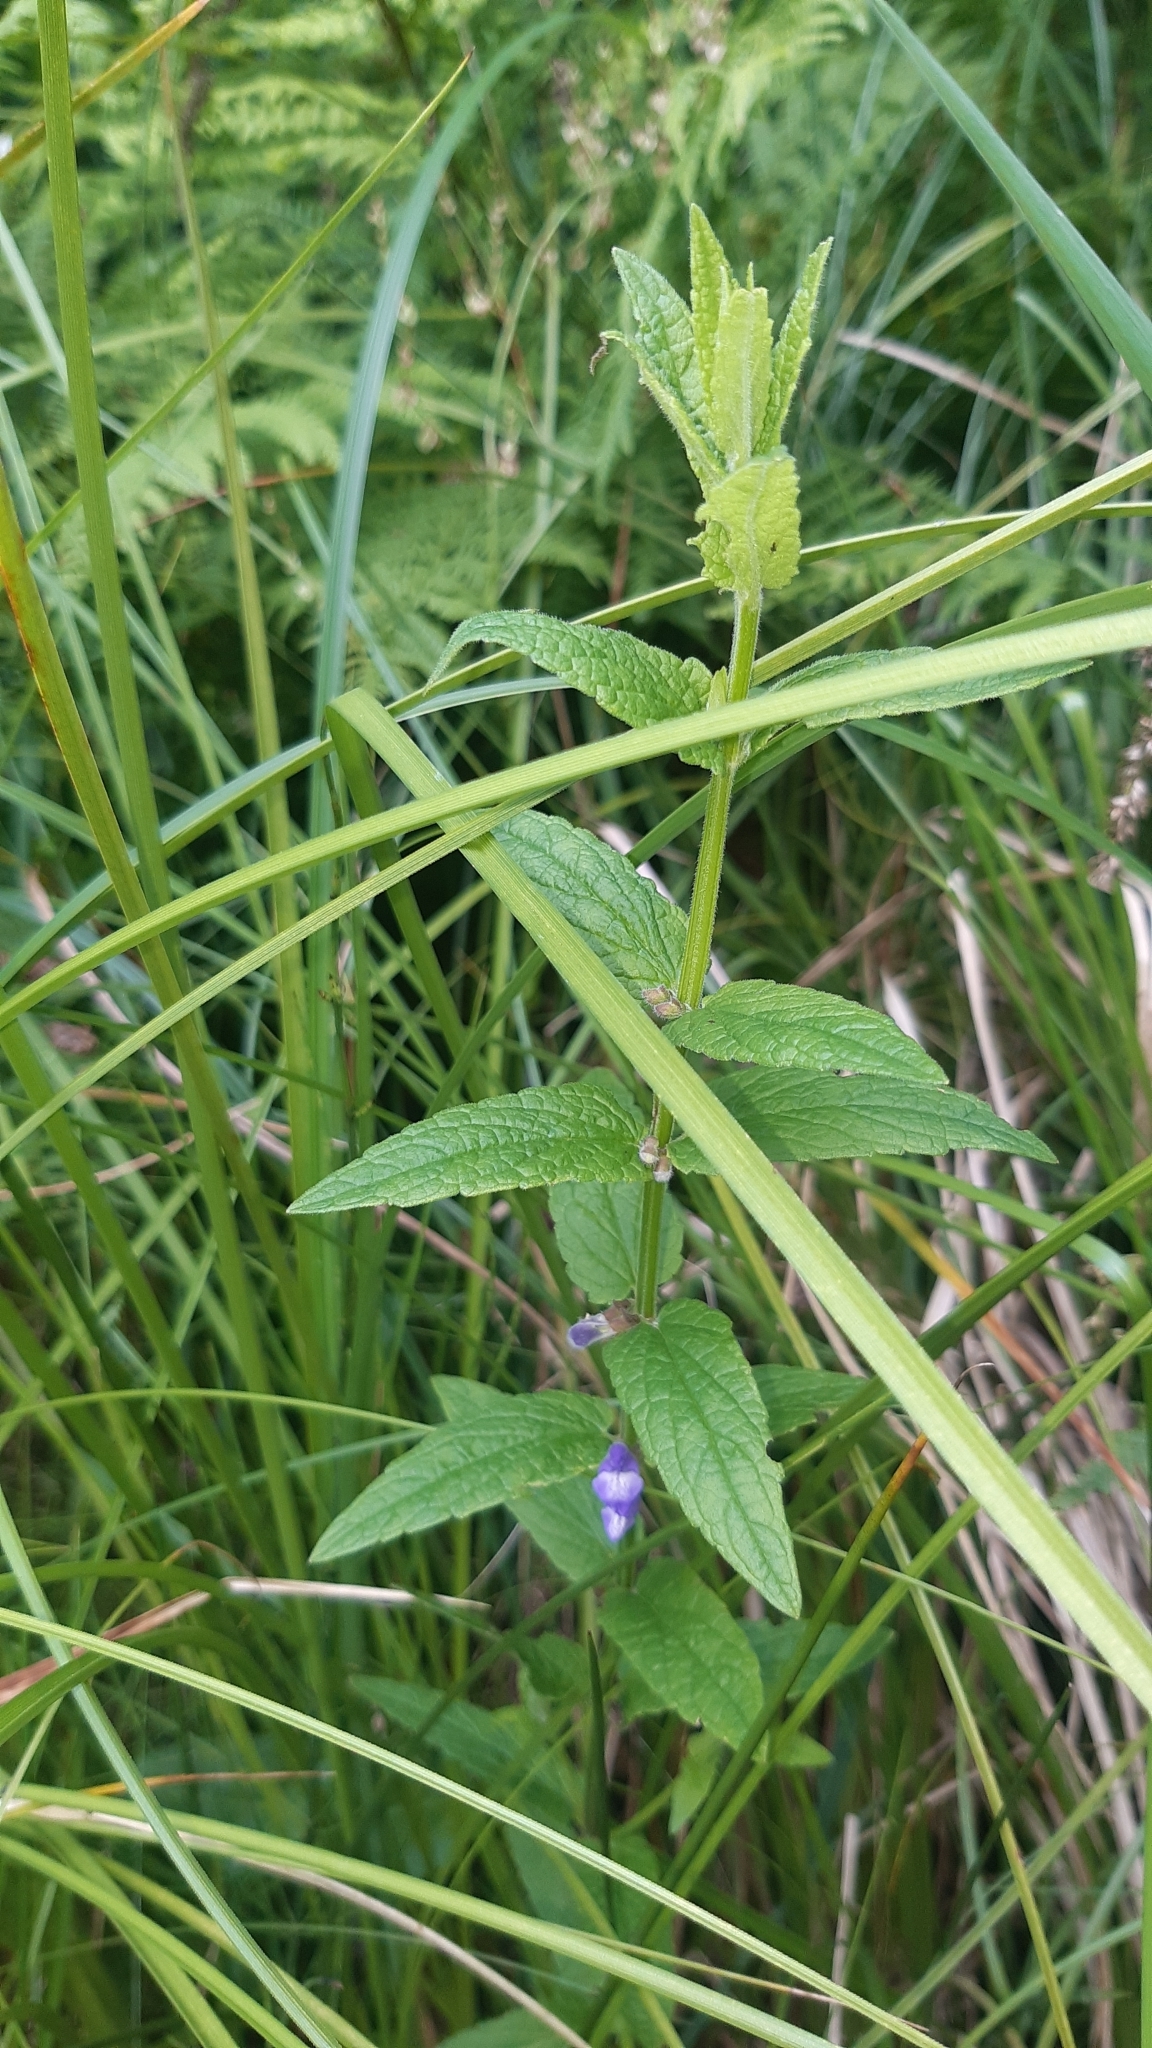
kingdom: Plantae
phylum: Tracheophyta
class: Magnoliopsida
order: Lamiales
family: Lamiaceae
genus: Scutellaria
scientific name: Scutellaria galericulata
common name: Skullcap
